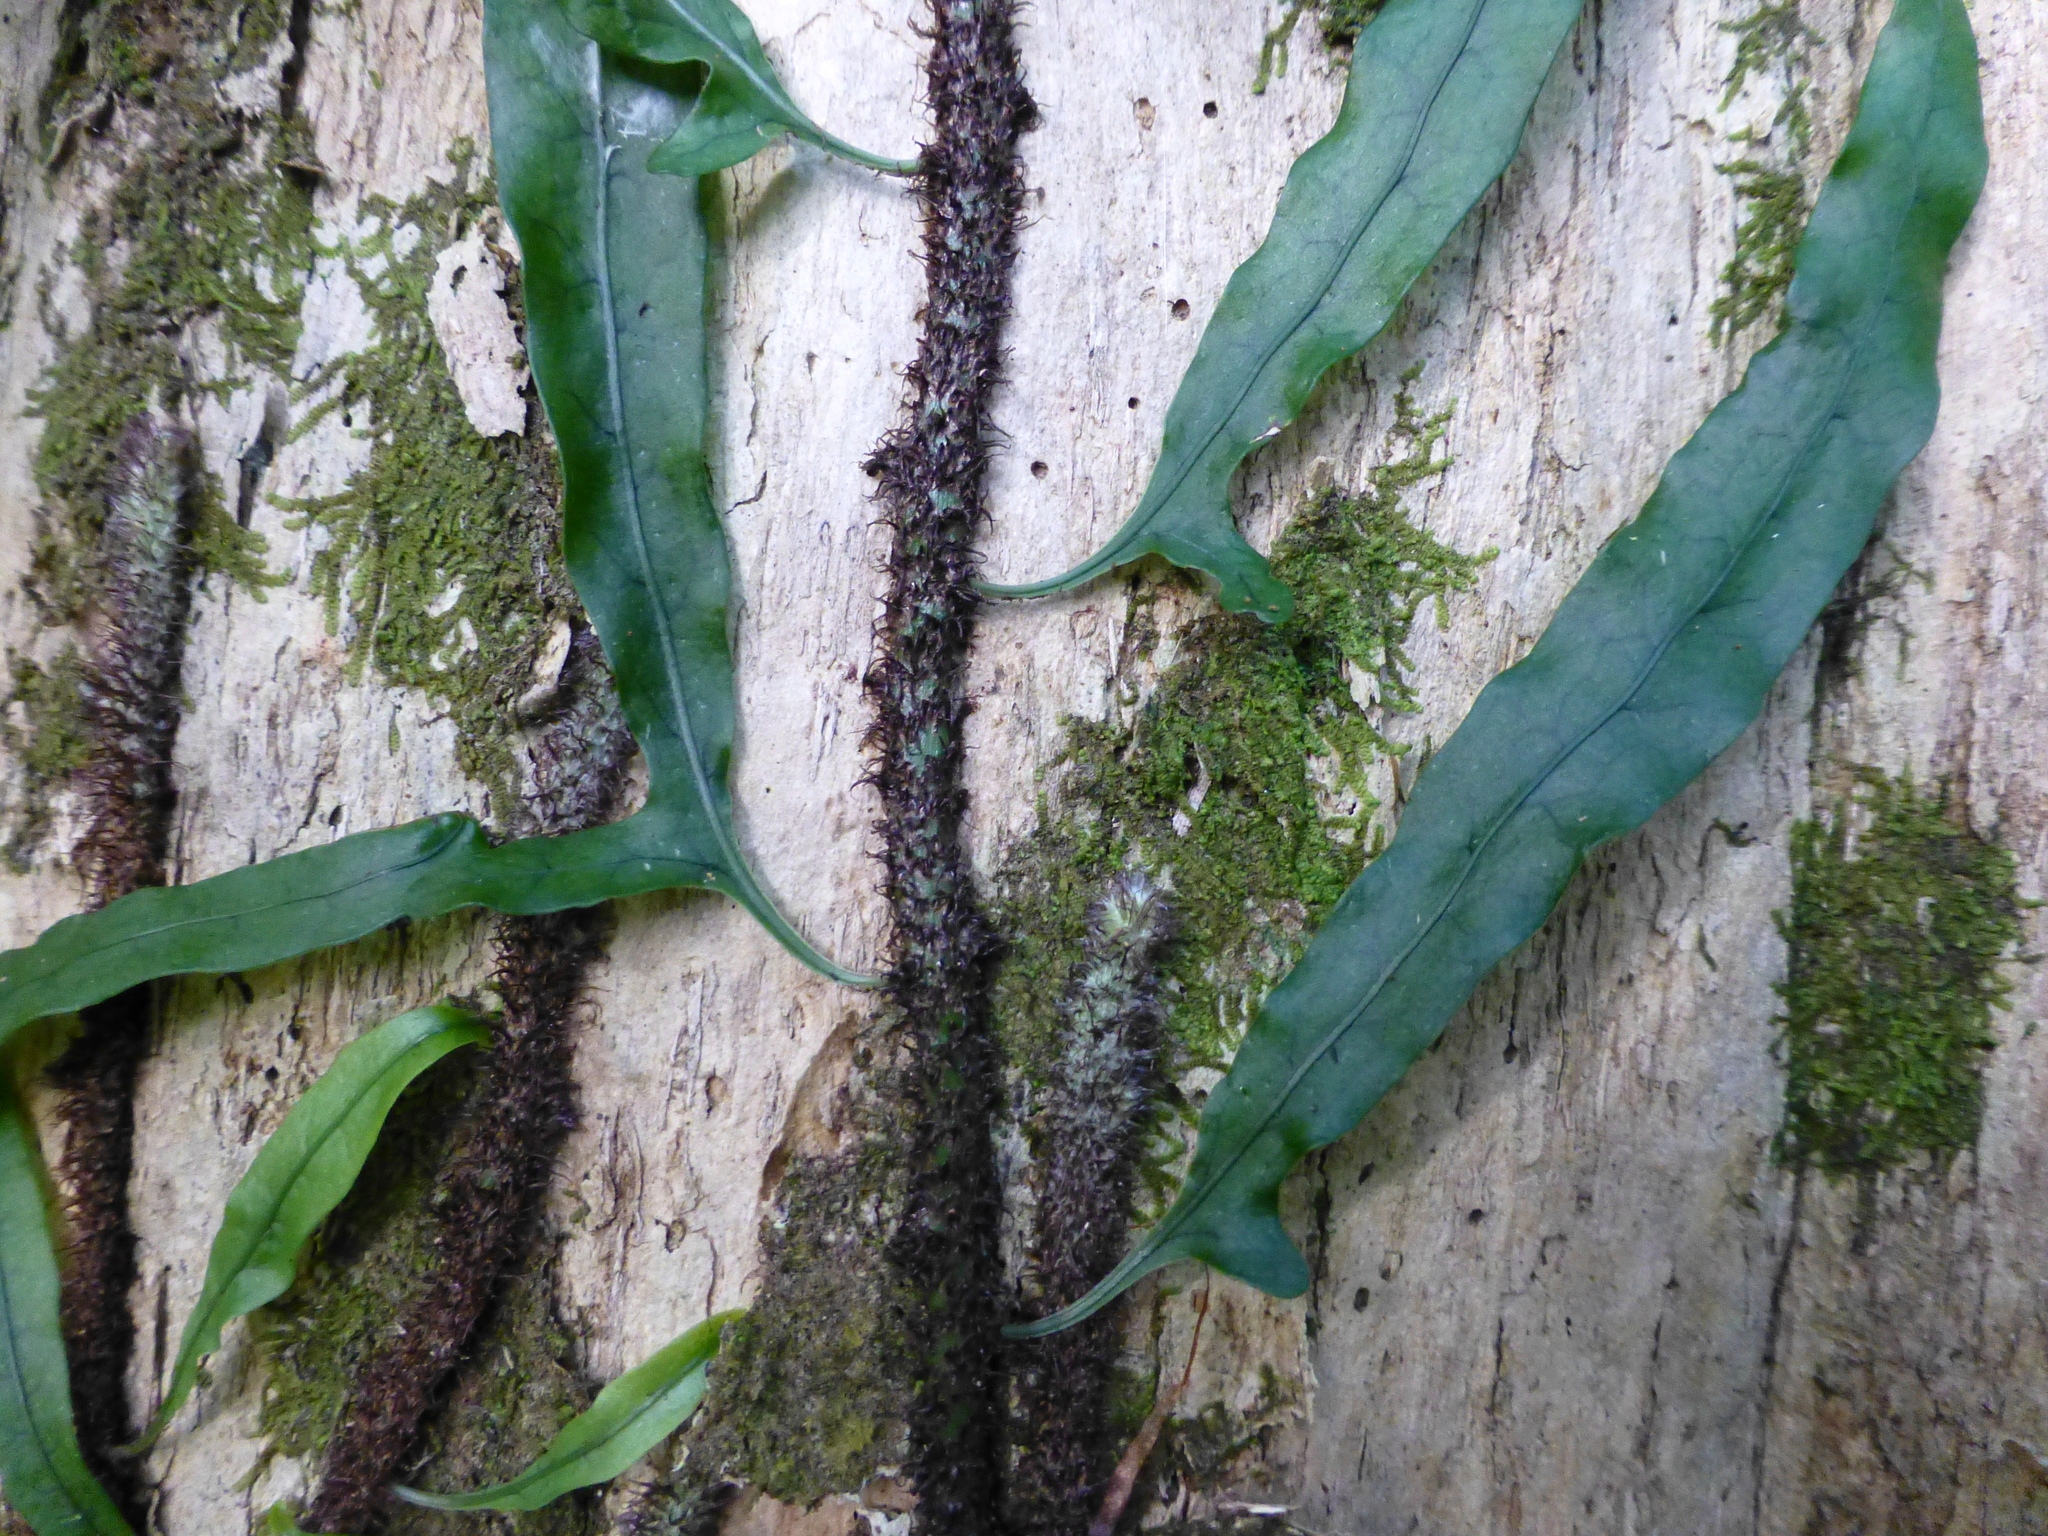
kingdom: Plantae
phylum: Tracheophyta
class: Polypodiopsida
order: Polypodiales
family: Polypodiaceae
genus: Lecanopteris
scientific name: Lecanopteris scandens
